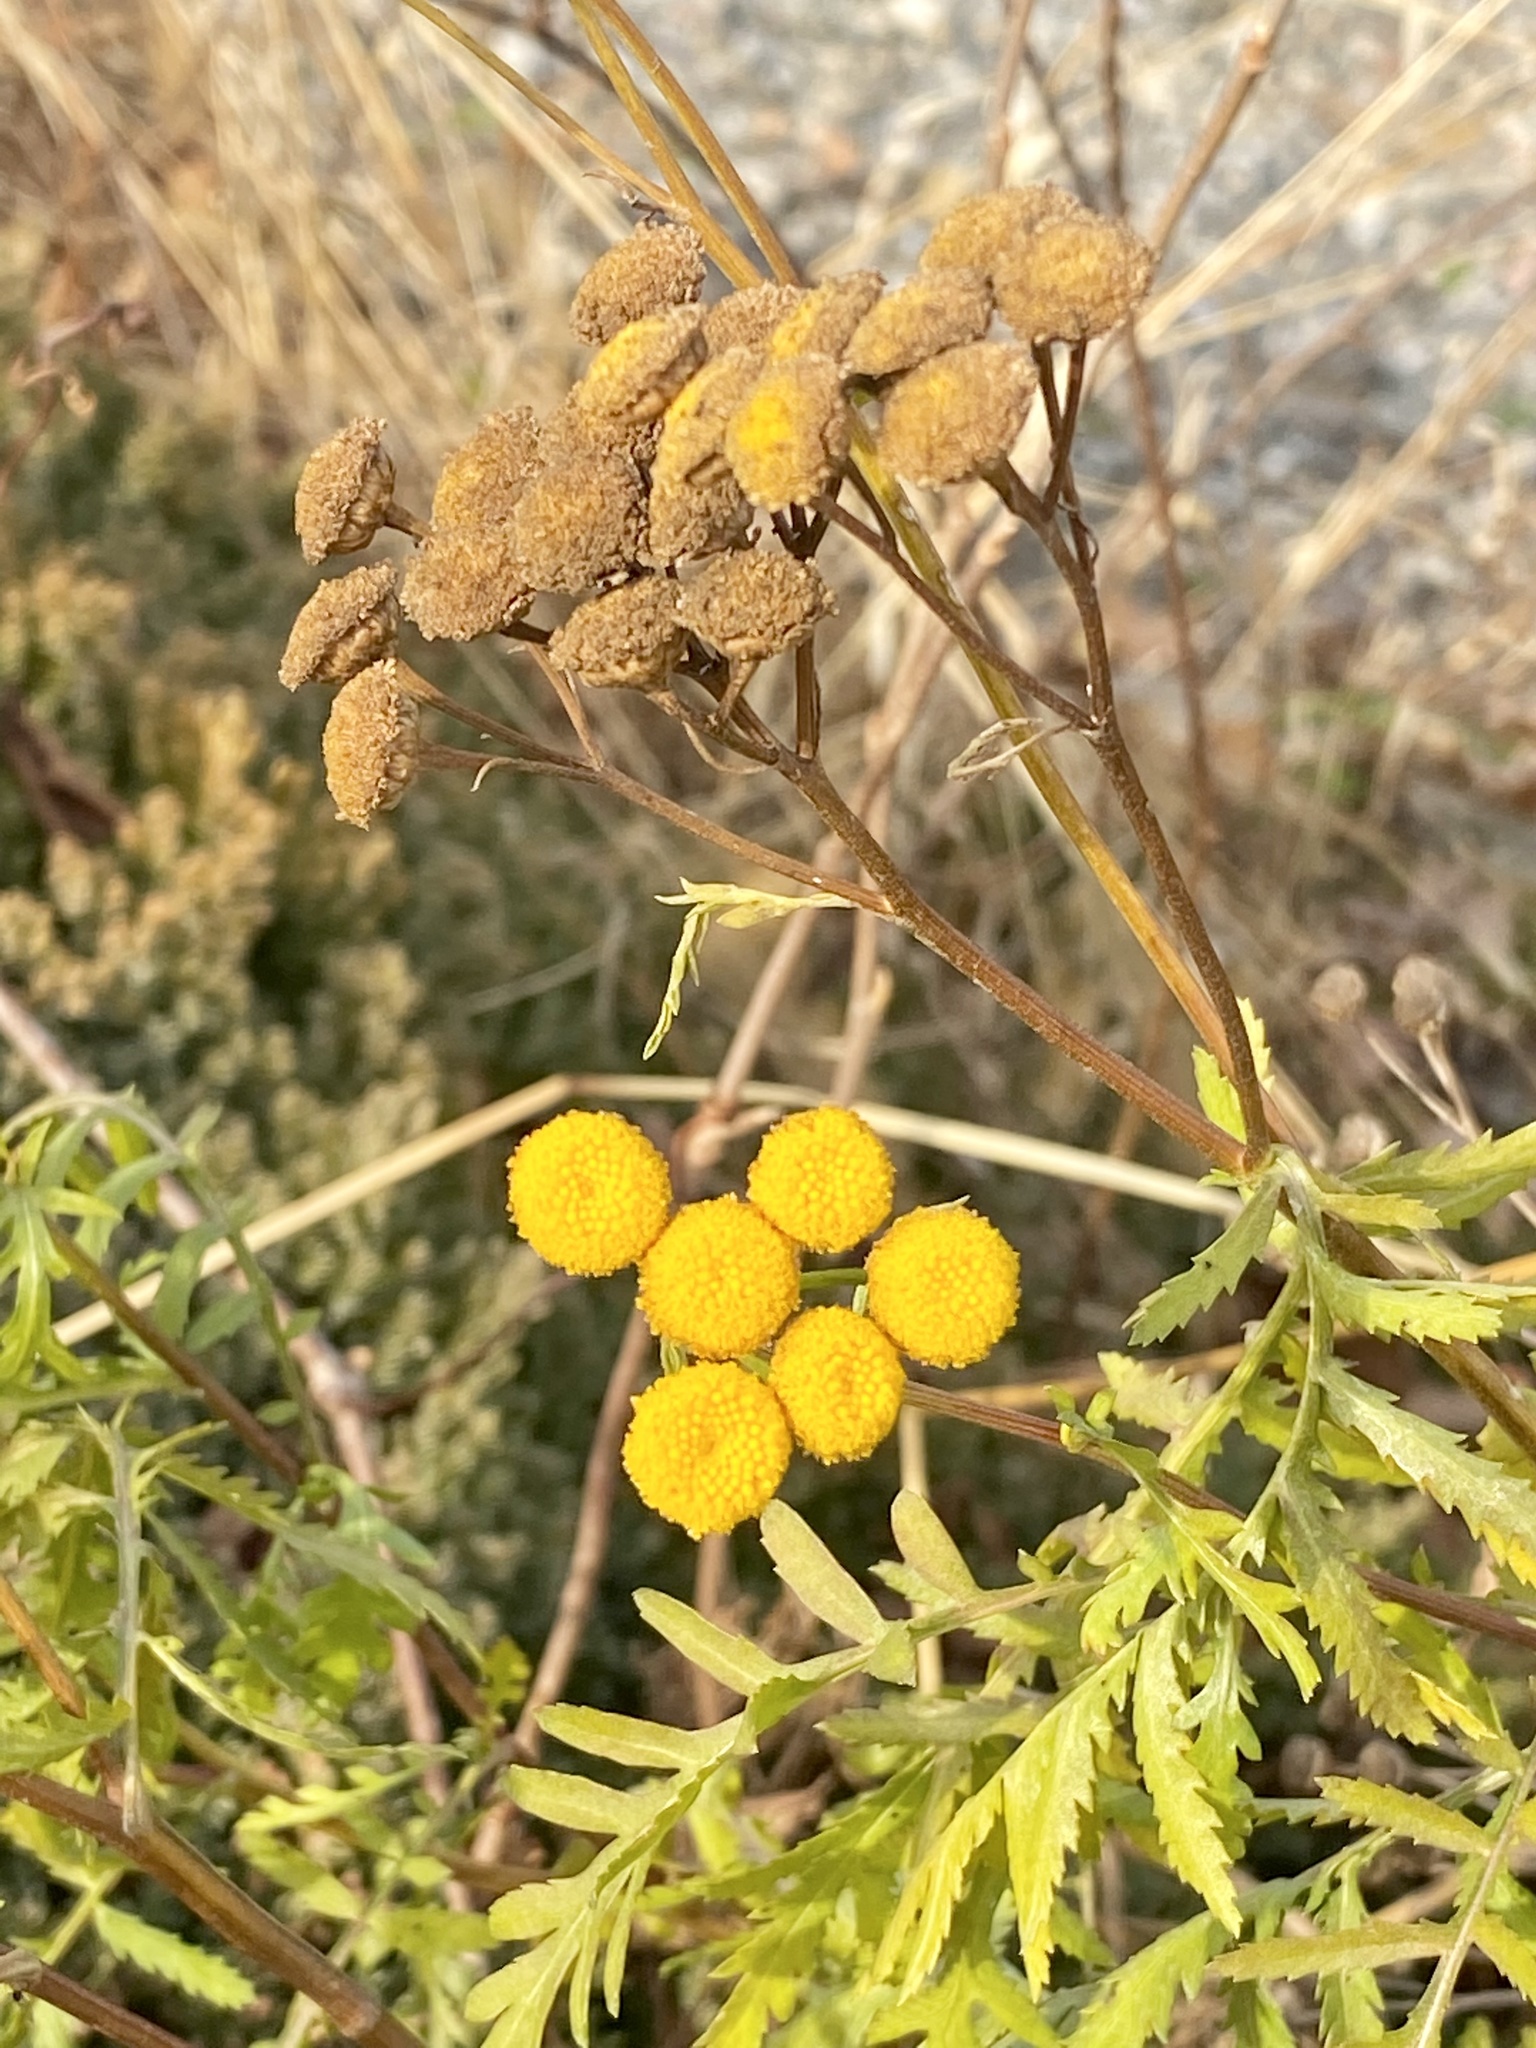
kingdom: Plantae
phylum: Tracheophyta
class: Magnoliopsida
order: Asterales
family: Asteraceae
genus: Tanacetum
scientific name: Tanacetum vulgare
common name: Common tansy
